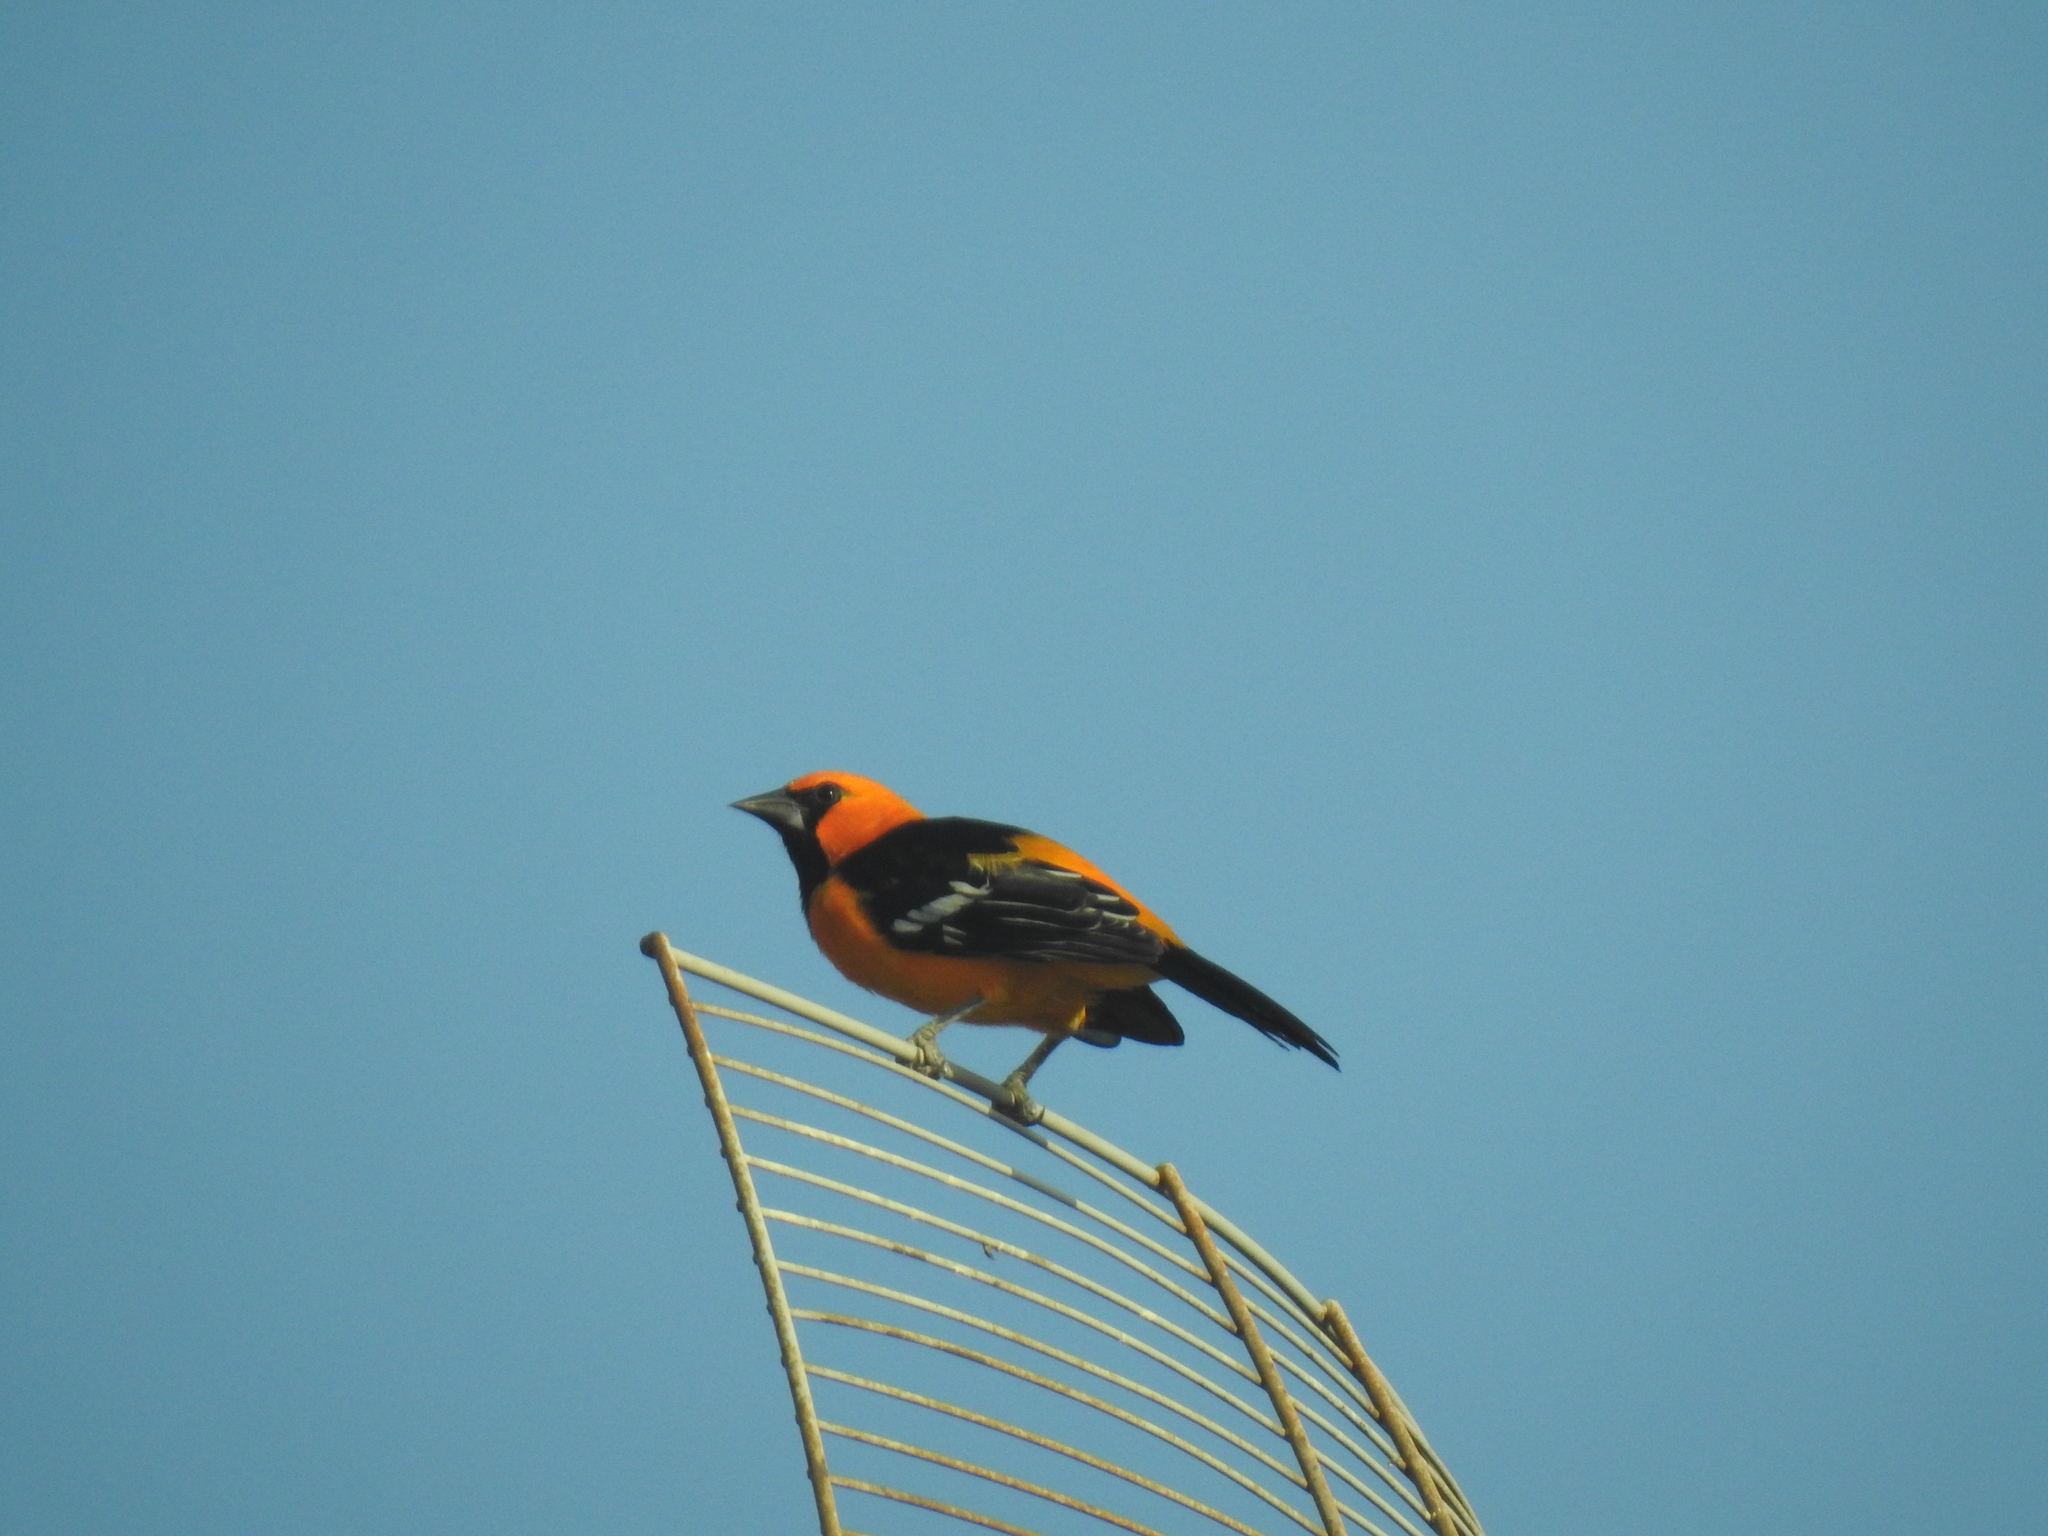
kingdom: Animalia
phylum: Chordata
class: Aves
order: Passeriformes
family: Icteridae
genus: Icterus
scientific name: Icterus gularis
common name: Altamira oriole
